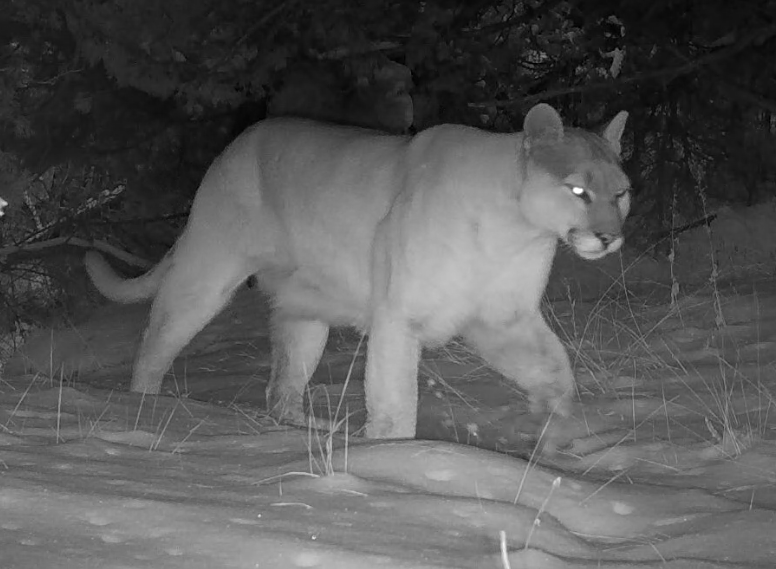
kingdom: Animalia
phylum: Chordata
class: Mammalia
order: Carnivora
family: Felidae
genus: Puma
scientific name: Puma concolor
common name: Puma
